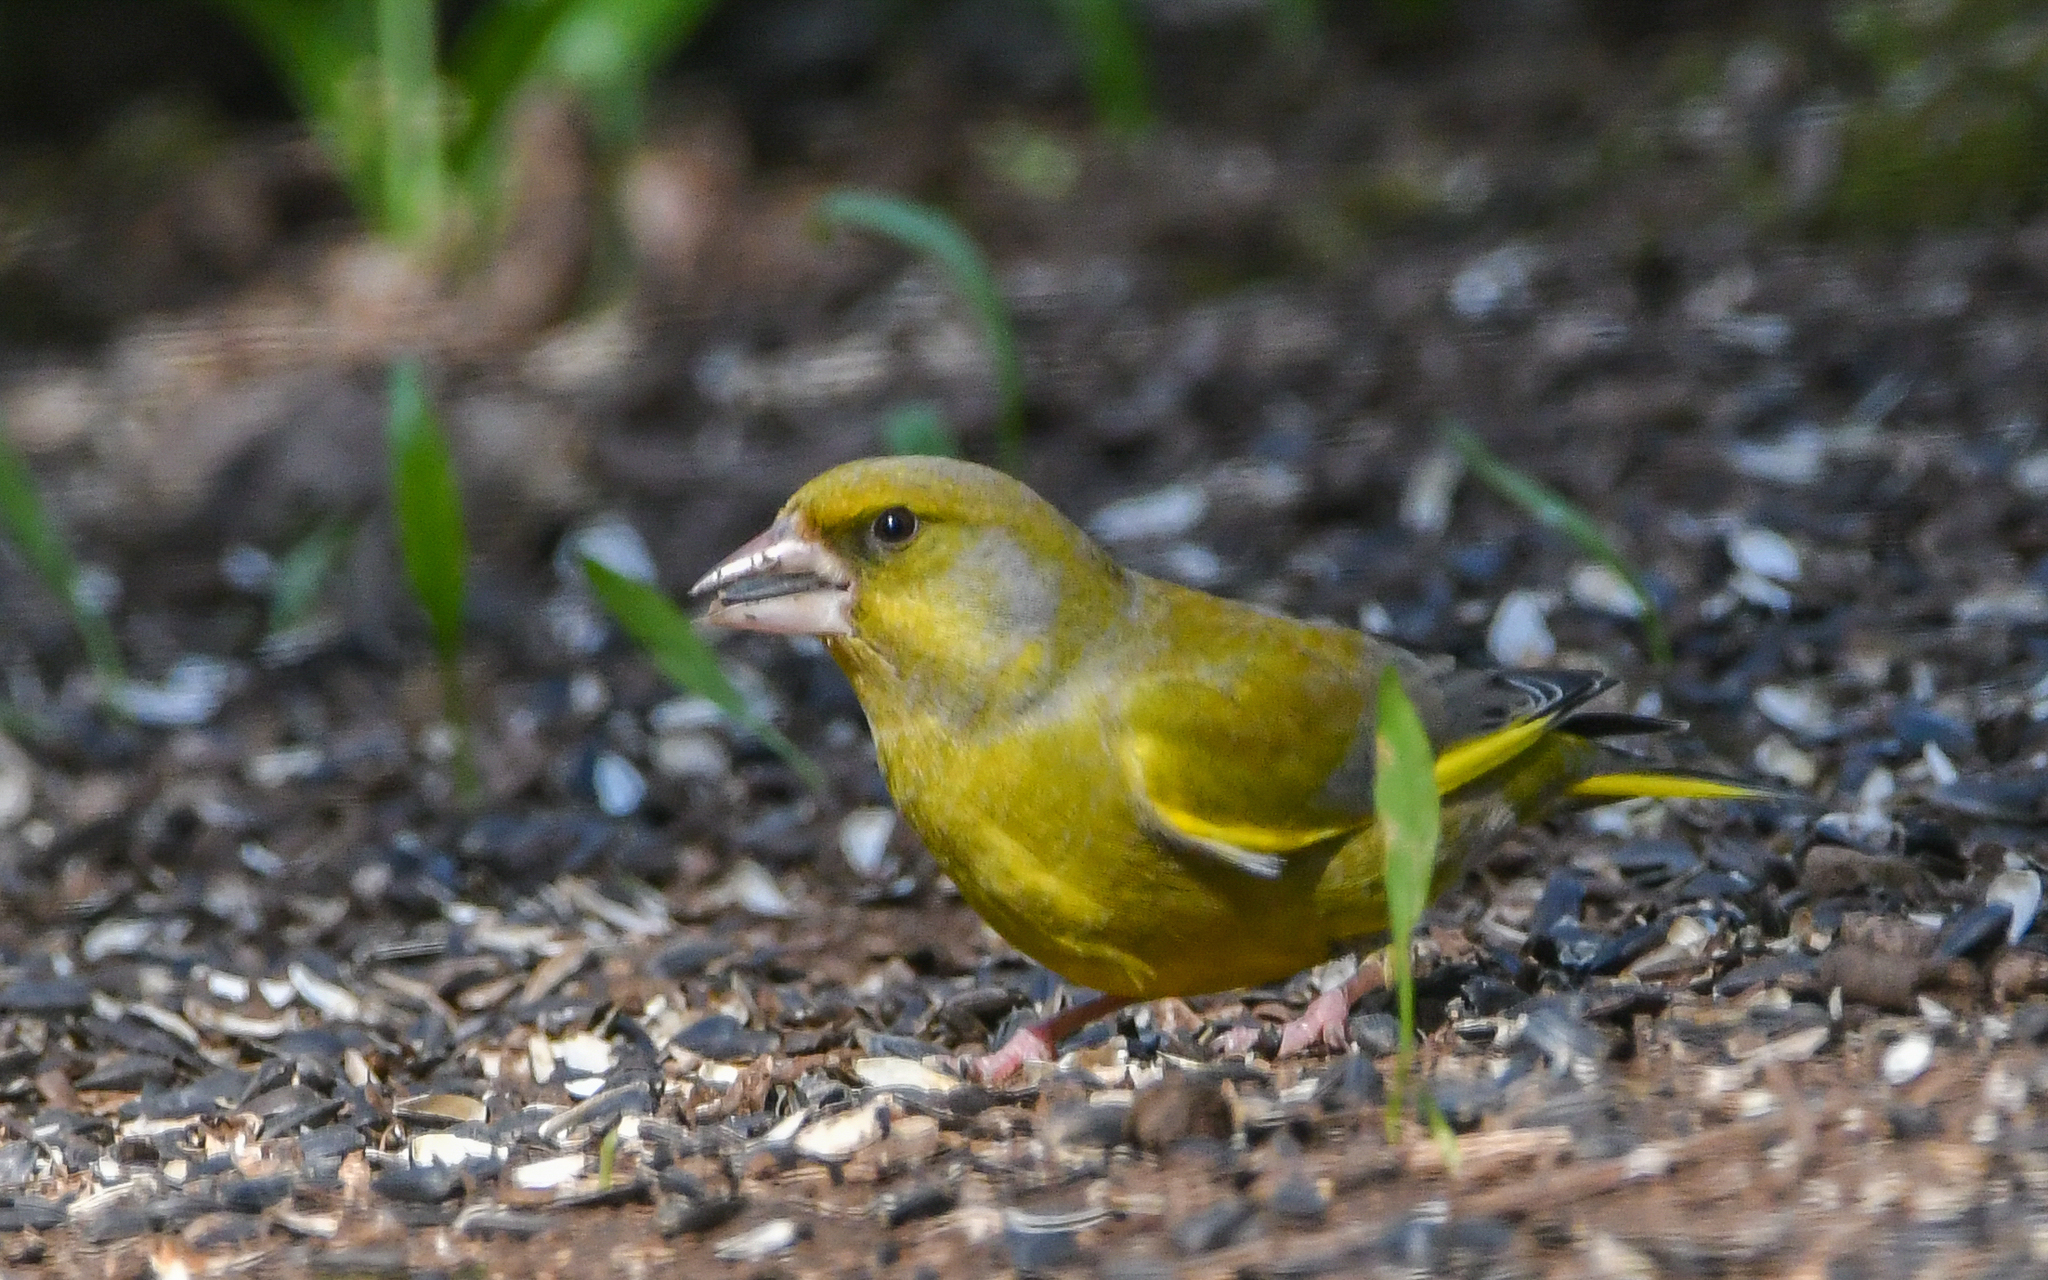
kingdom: Plantae
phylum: Tracheophyta
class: Liliopsida
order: Poales
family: Poaceae
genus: Chloris
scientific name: Chloris chloris
